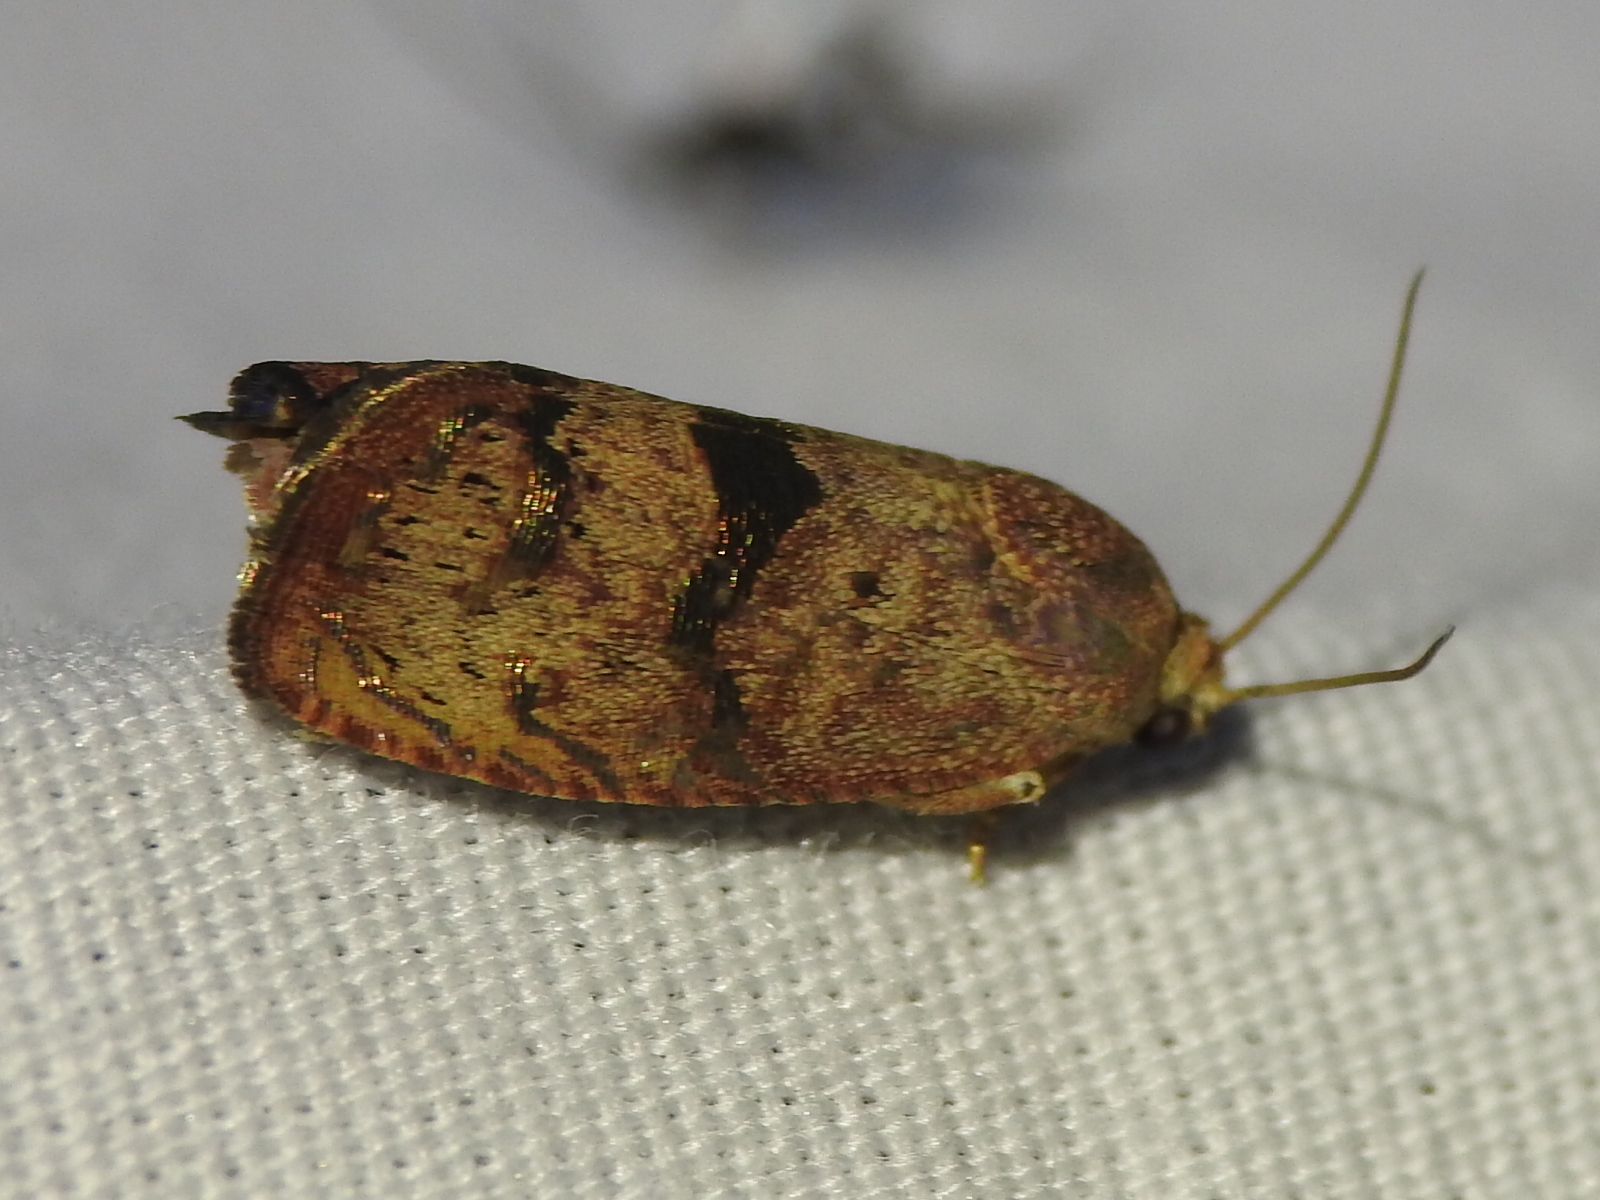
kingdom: Animalia
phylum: Arthropoda
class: Insecta
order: Lepidoptera
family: Tortricidae
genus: Cydia
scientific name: Cydia latiferreana
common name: Filbertworm moth
